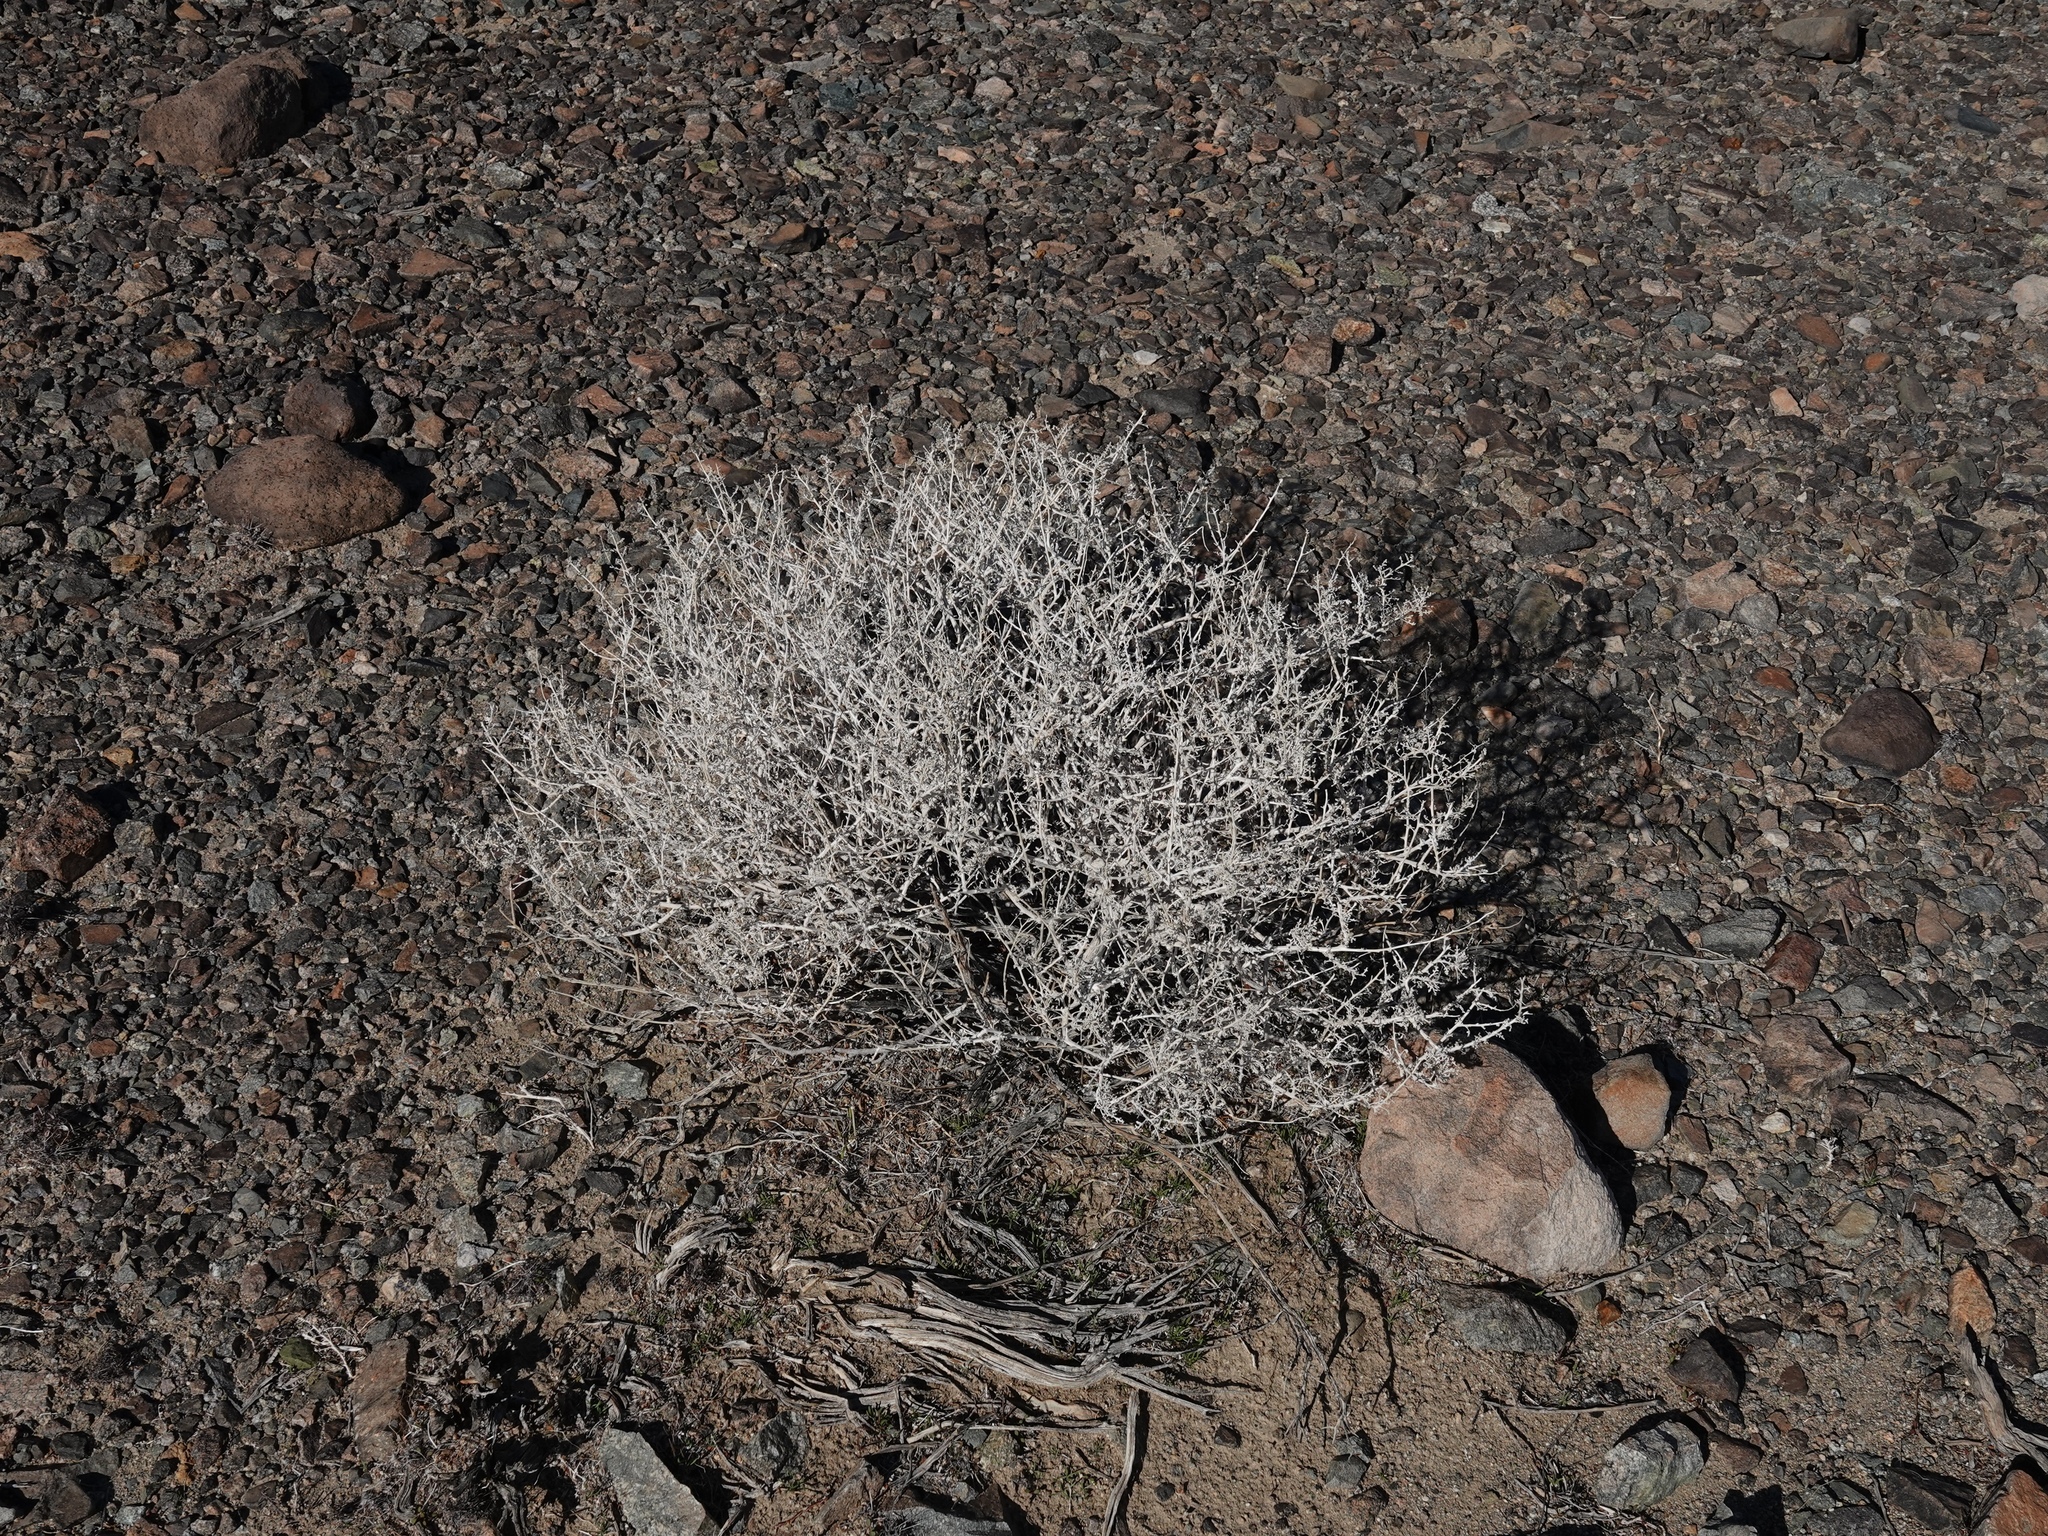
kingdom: Plantae
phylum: Tracheophyta
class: Magnoliopsida
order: Asterales
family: Asteraceae
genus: Ambrosia
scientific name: Ambrosia dumosa
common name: Bur-sage
